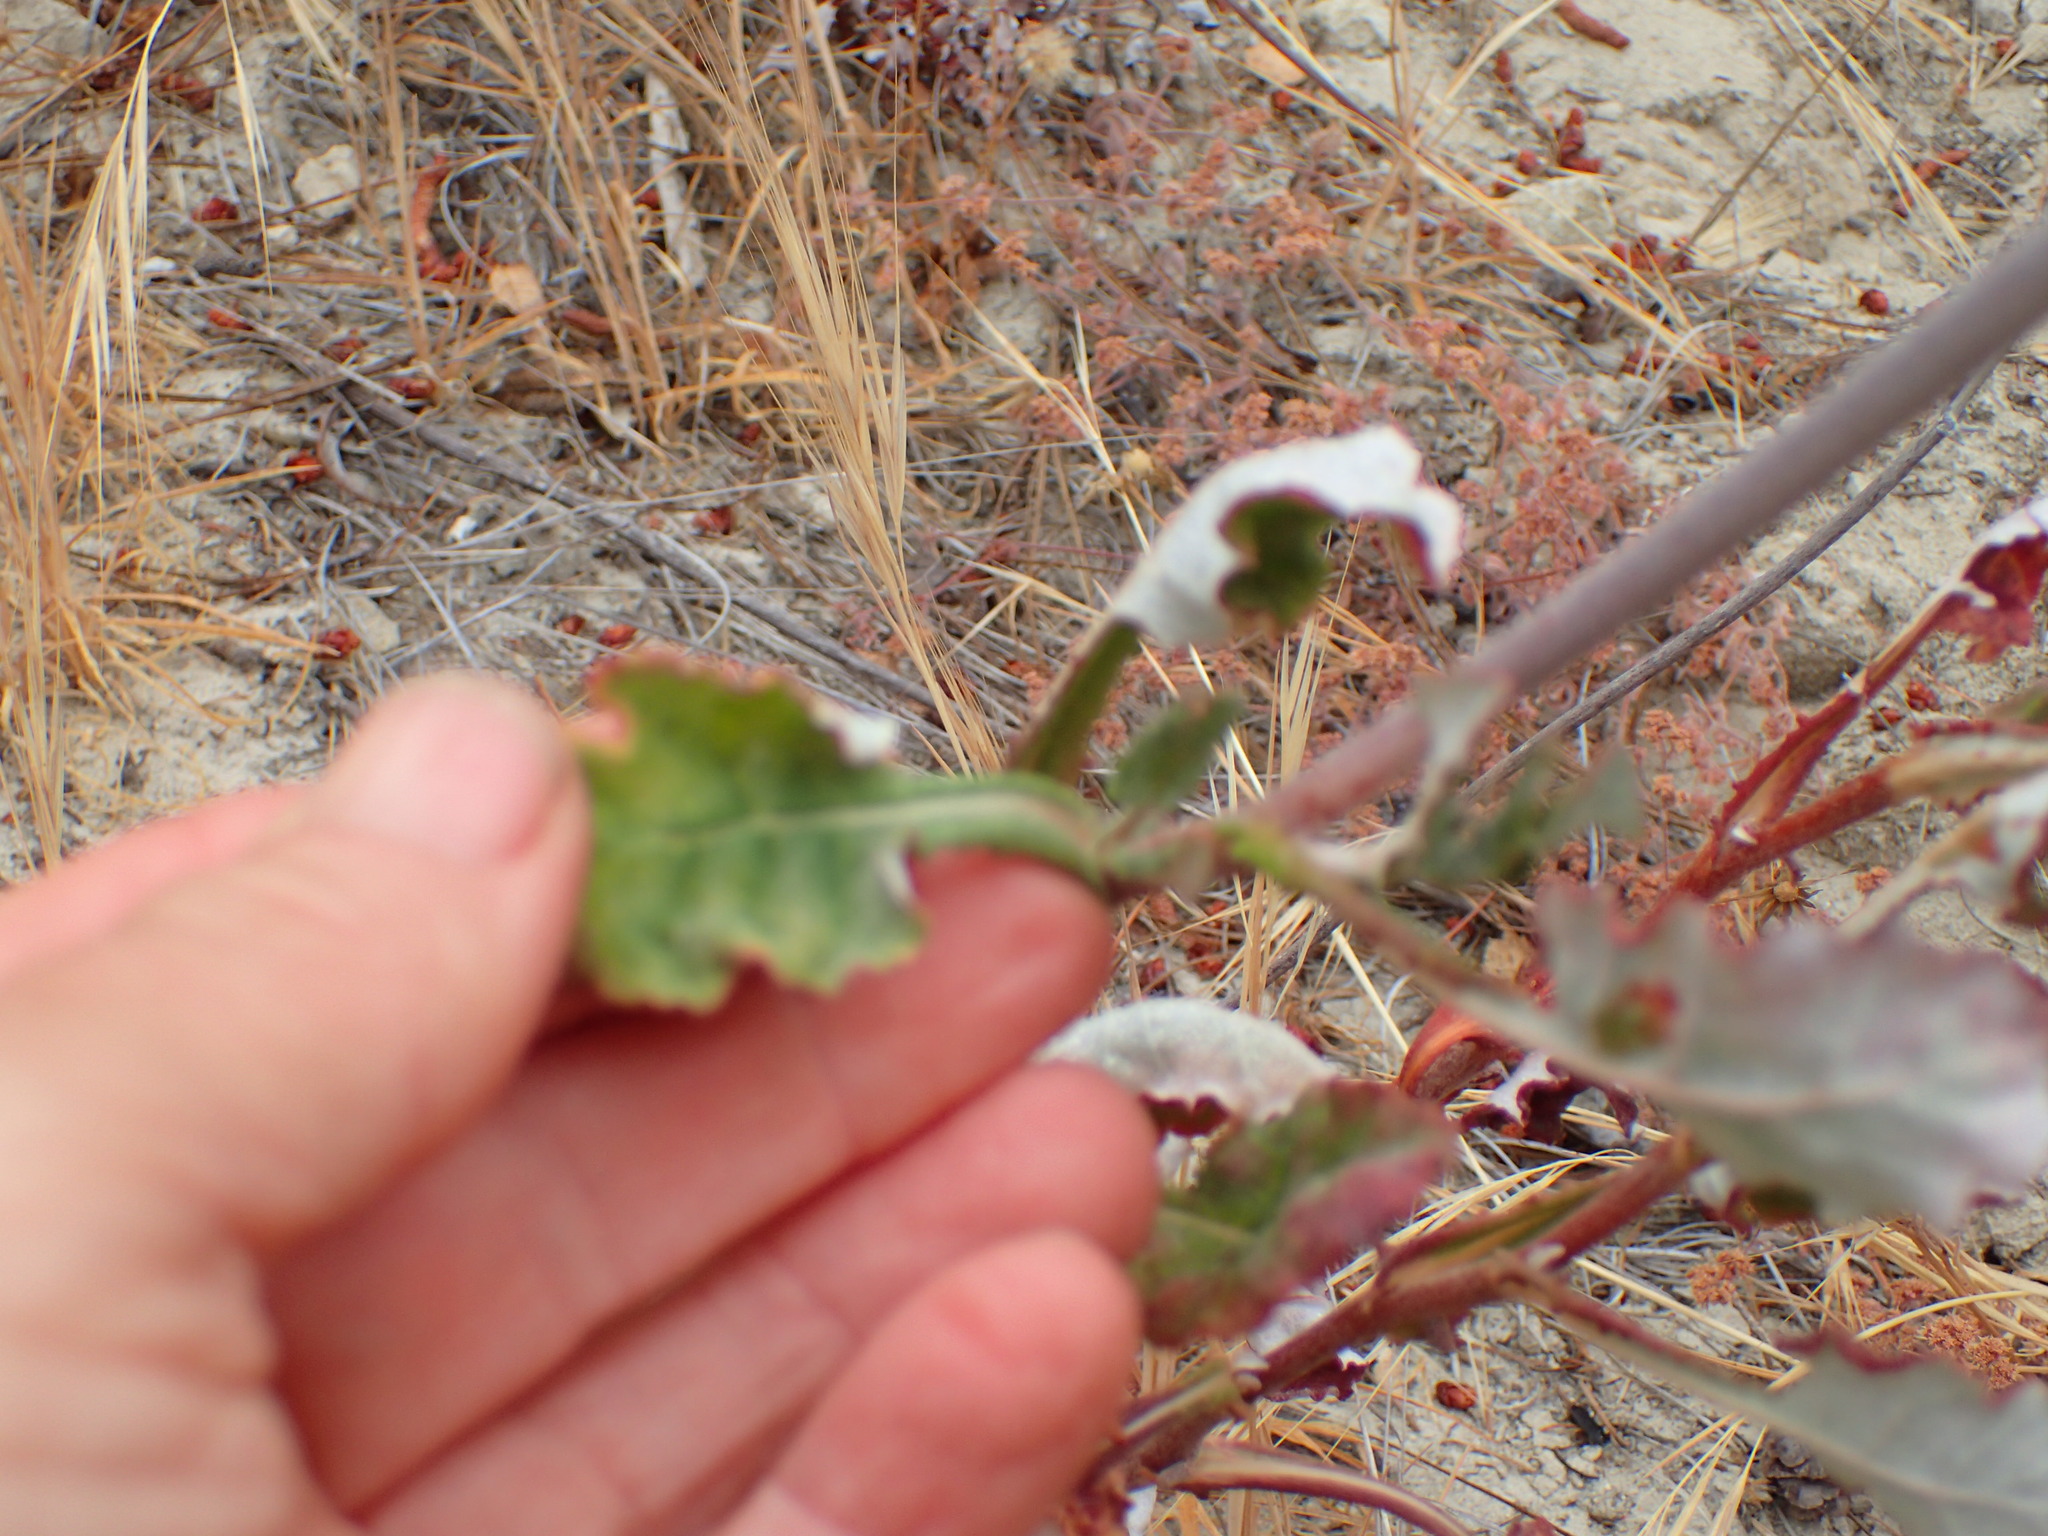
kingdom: Plantae
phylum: Tracheophyta
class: Magnoliopsida
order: Caryophyllales
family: Polygonaceae
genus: Eriogonum
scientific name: Eriogonum nudum
